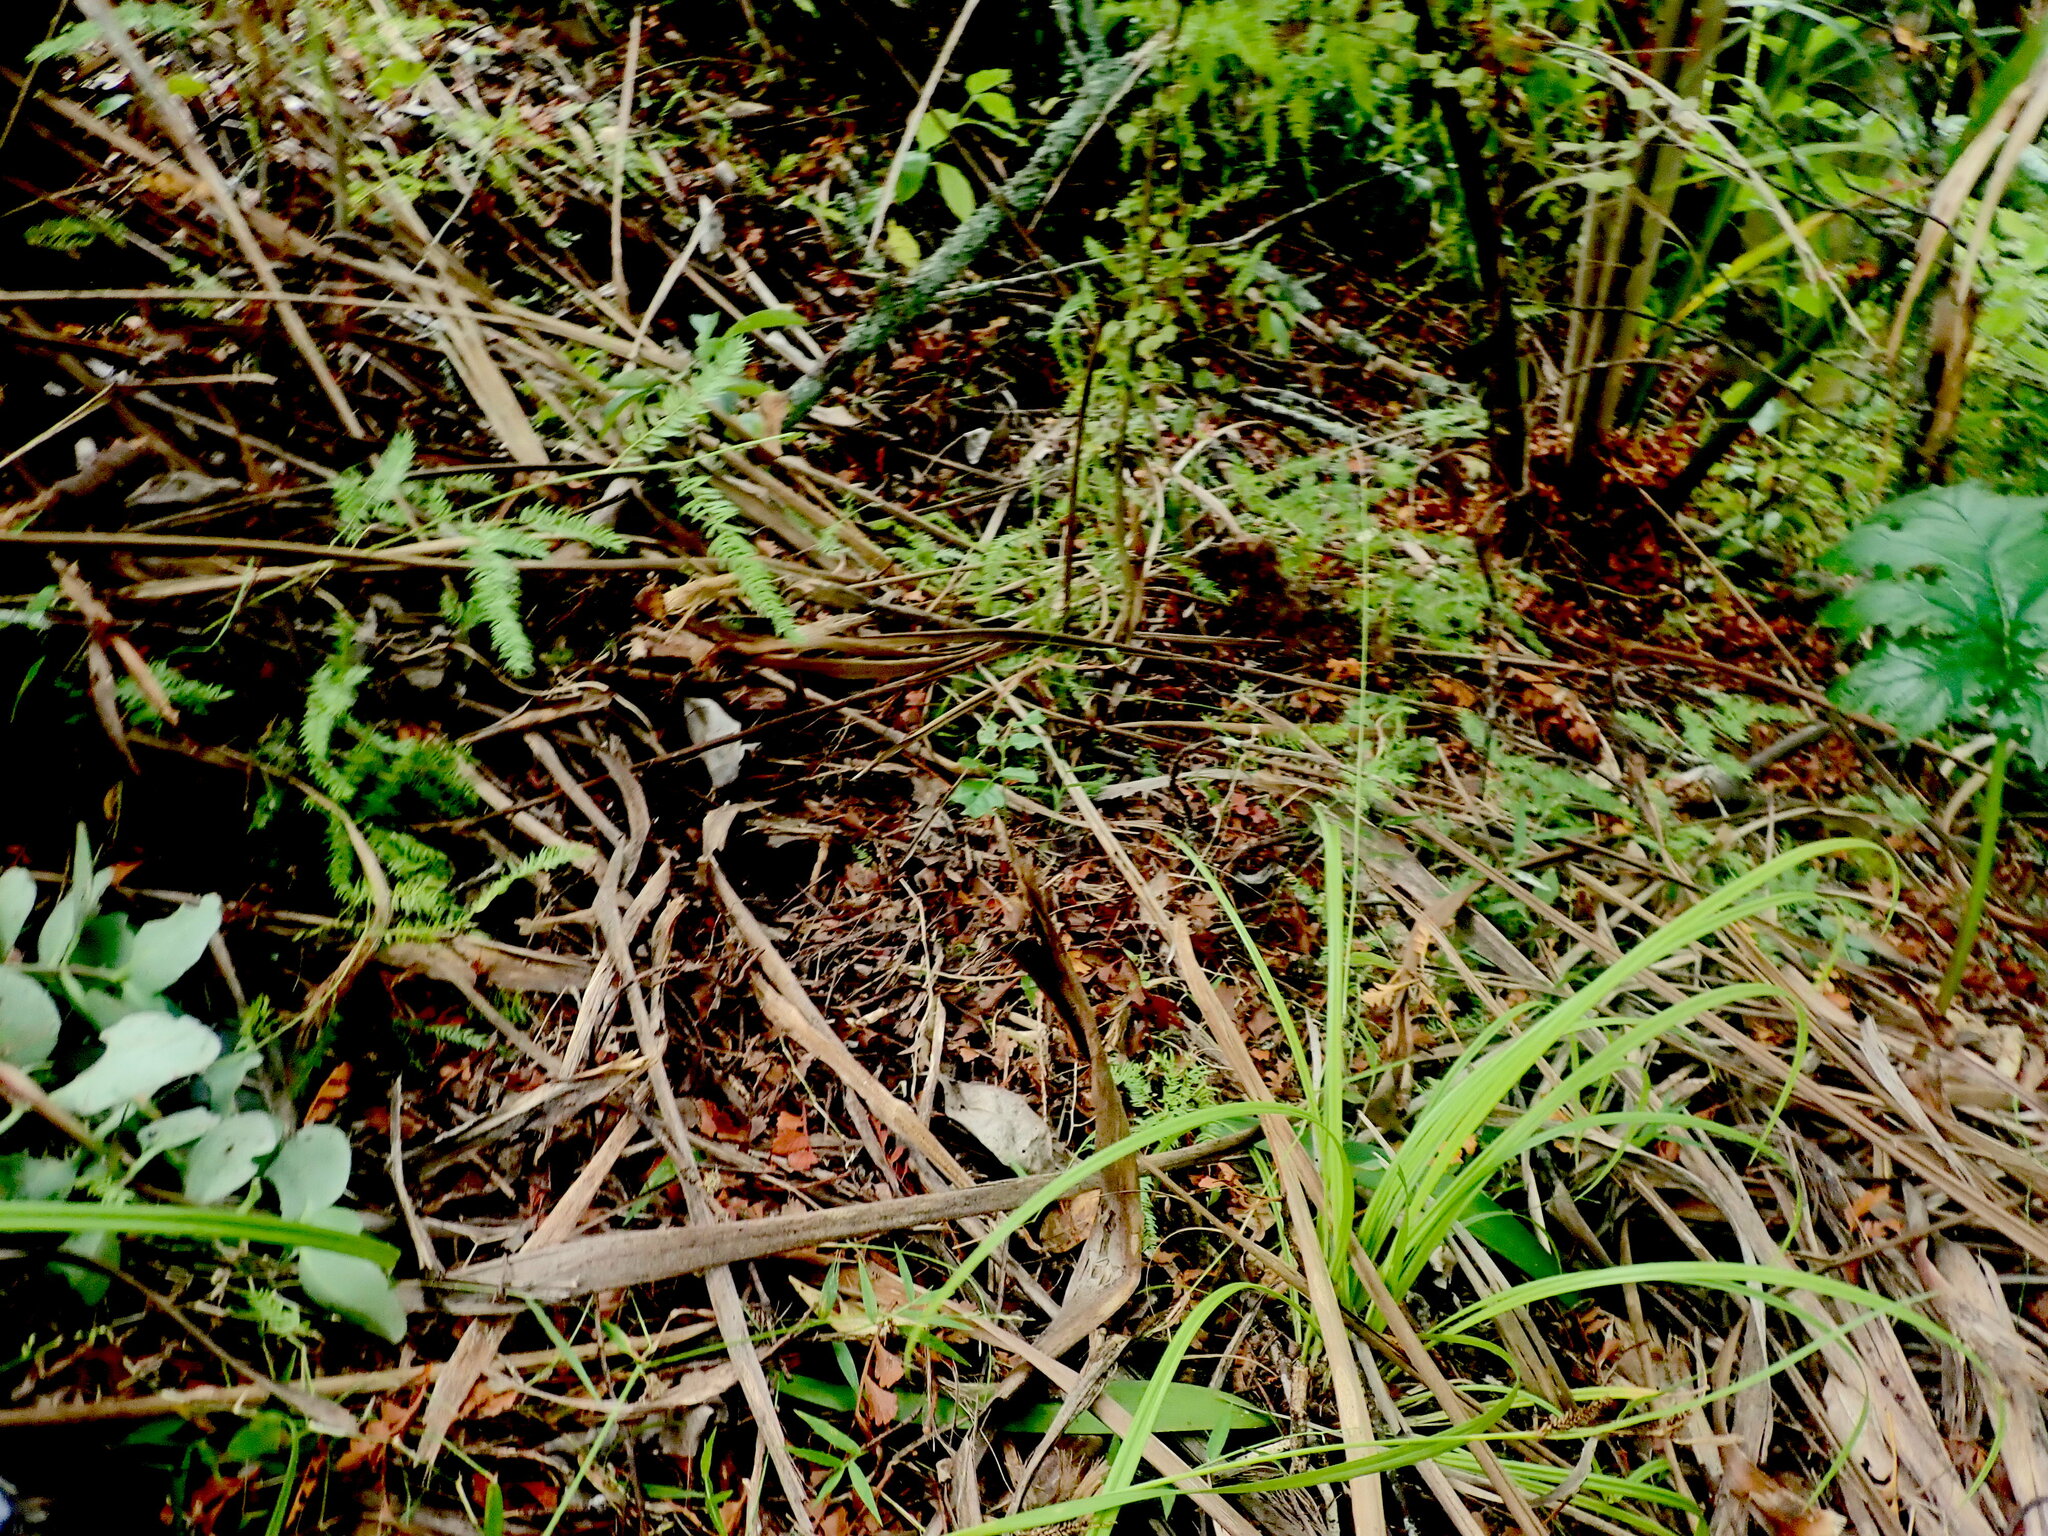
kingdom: Plantae
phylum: Tracheophyta
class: Magnoliopsida
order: Sapindales
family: Meliaceae
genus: Didymocheton
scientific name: Didymocheton spectabilis
